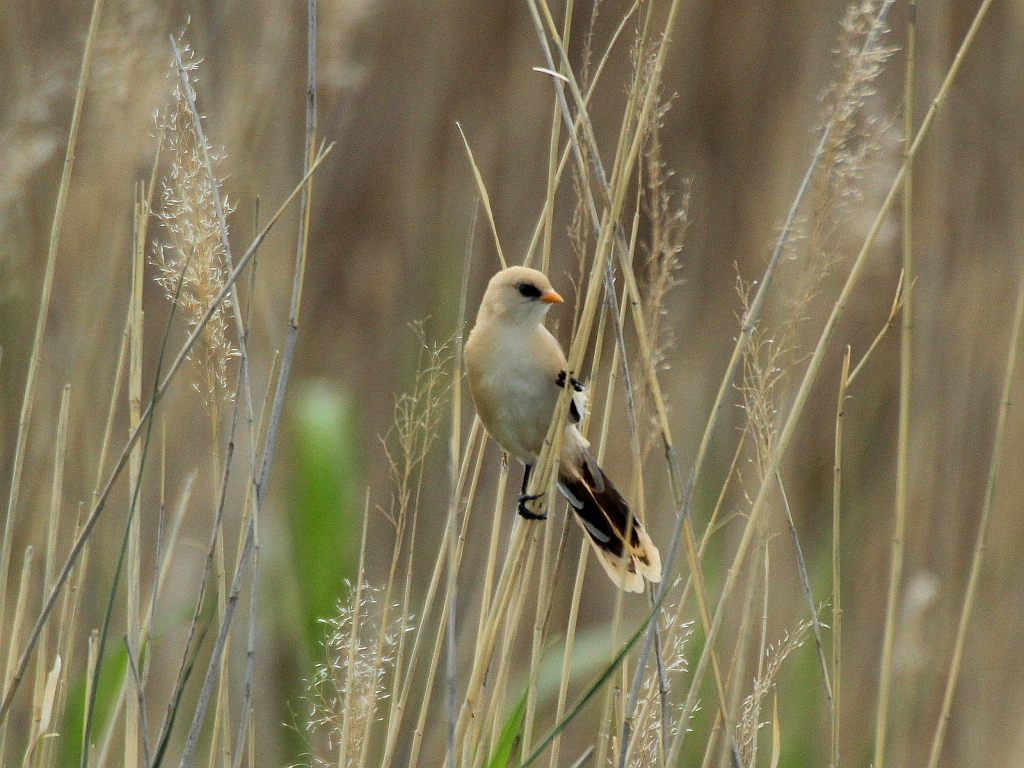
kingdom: Animalia
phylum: Chordata
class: Aves
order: Passeriformes
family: Panuridae
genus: Panurus
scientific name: Panurus biarmicus
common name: Bearded reedling
